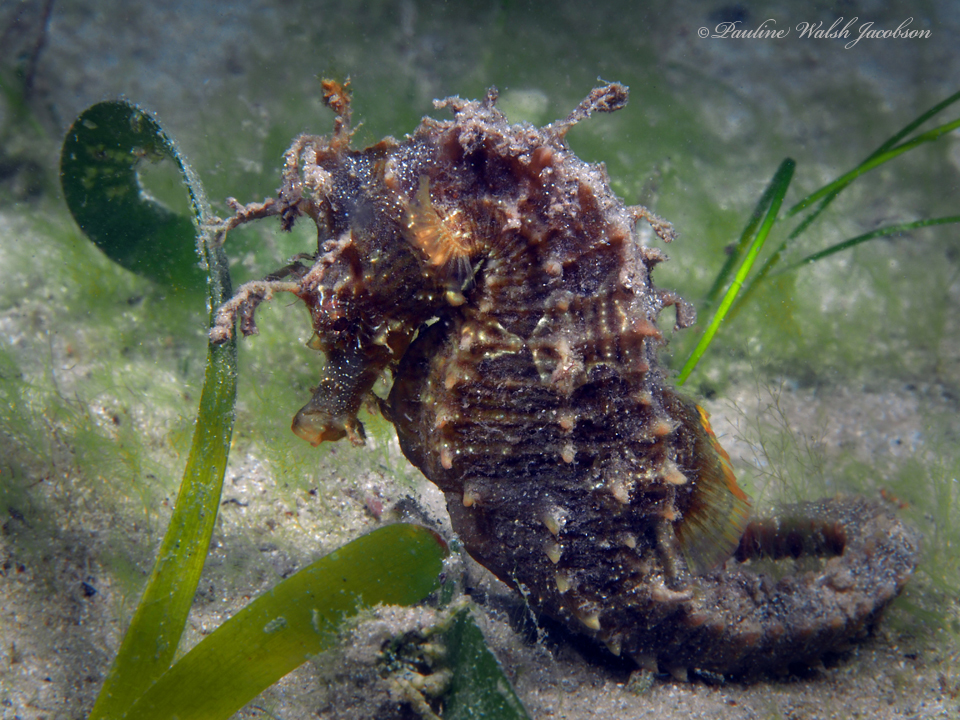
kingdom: Animalia
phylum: Chordata
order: Syngnathiformes
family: Syngnathidae
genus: Hippocampus
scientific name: Hippocampus erectus
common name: Lined seahorse
